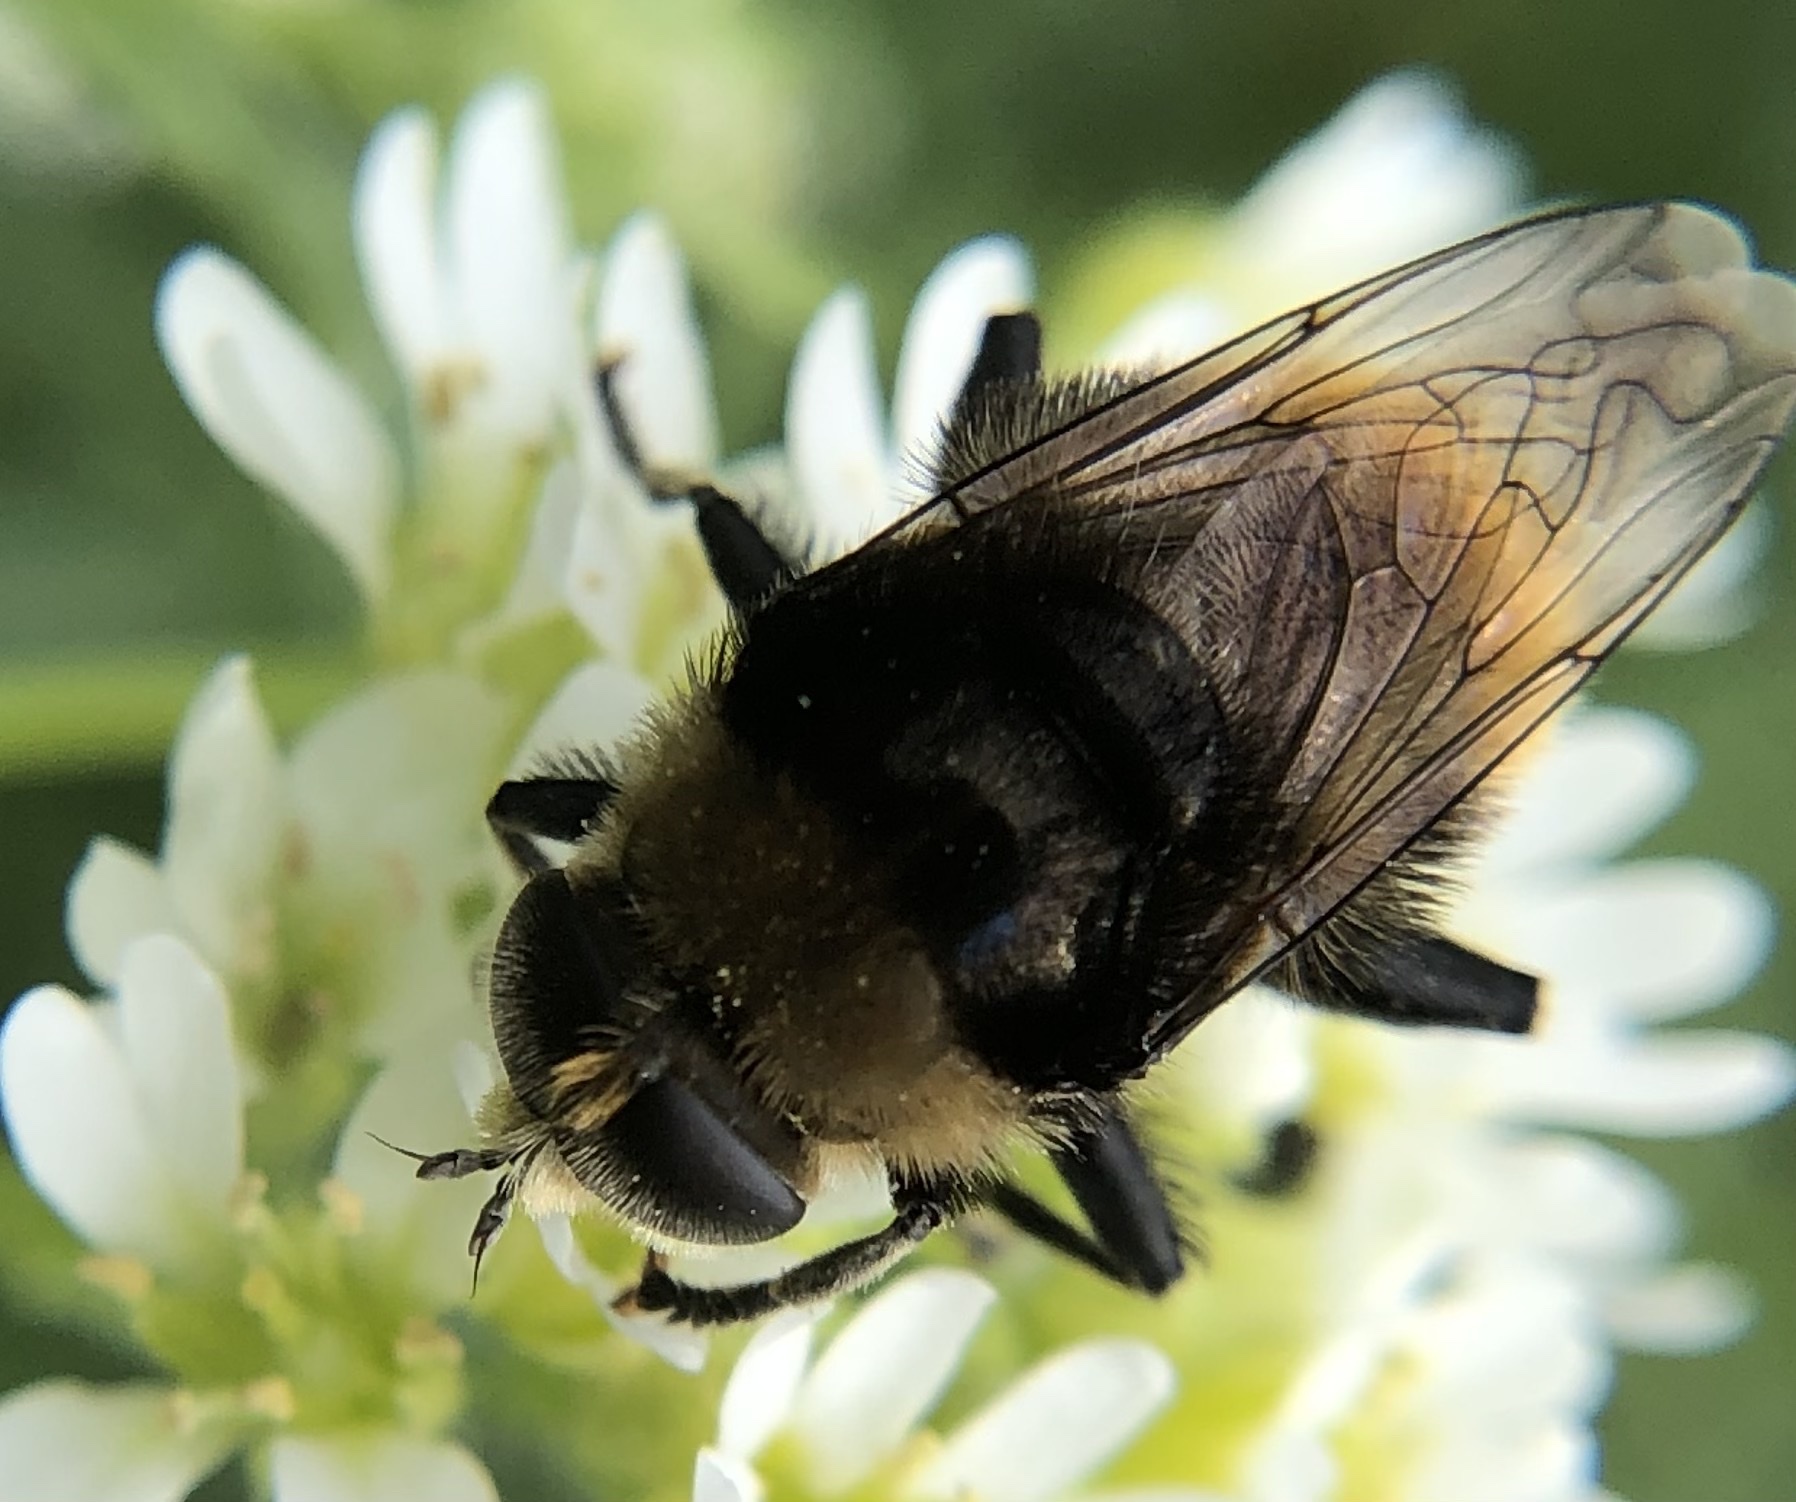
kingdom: Animalia
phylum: Arthropoda
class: Insecta
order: Diptera
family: Syrphidae
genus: Merodon
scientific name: Merodon equestris
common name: Greater bulb-fly
